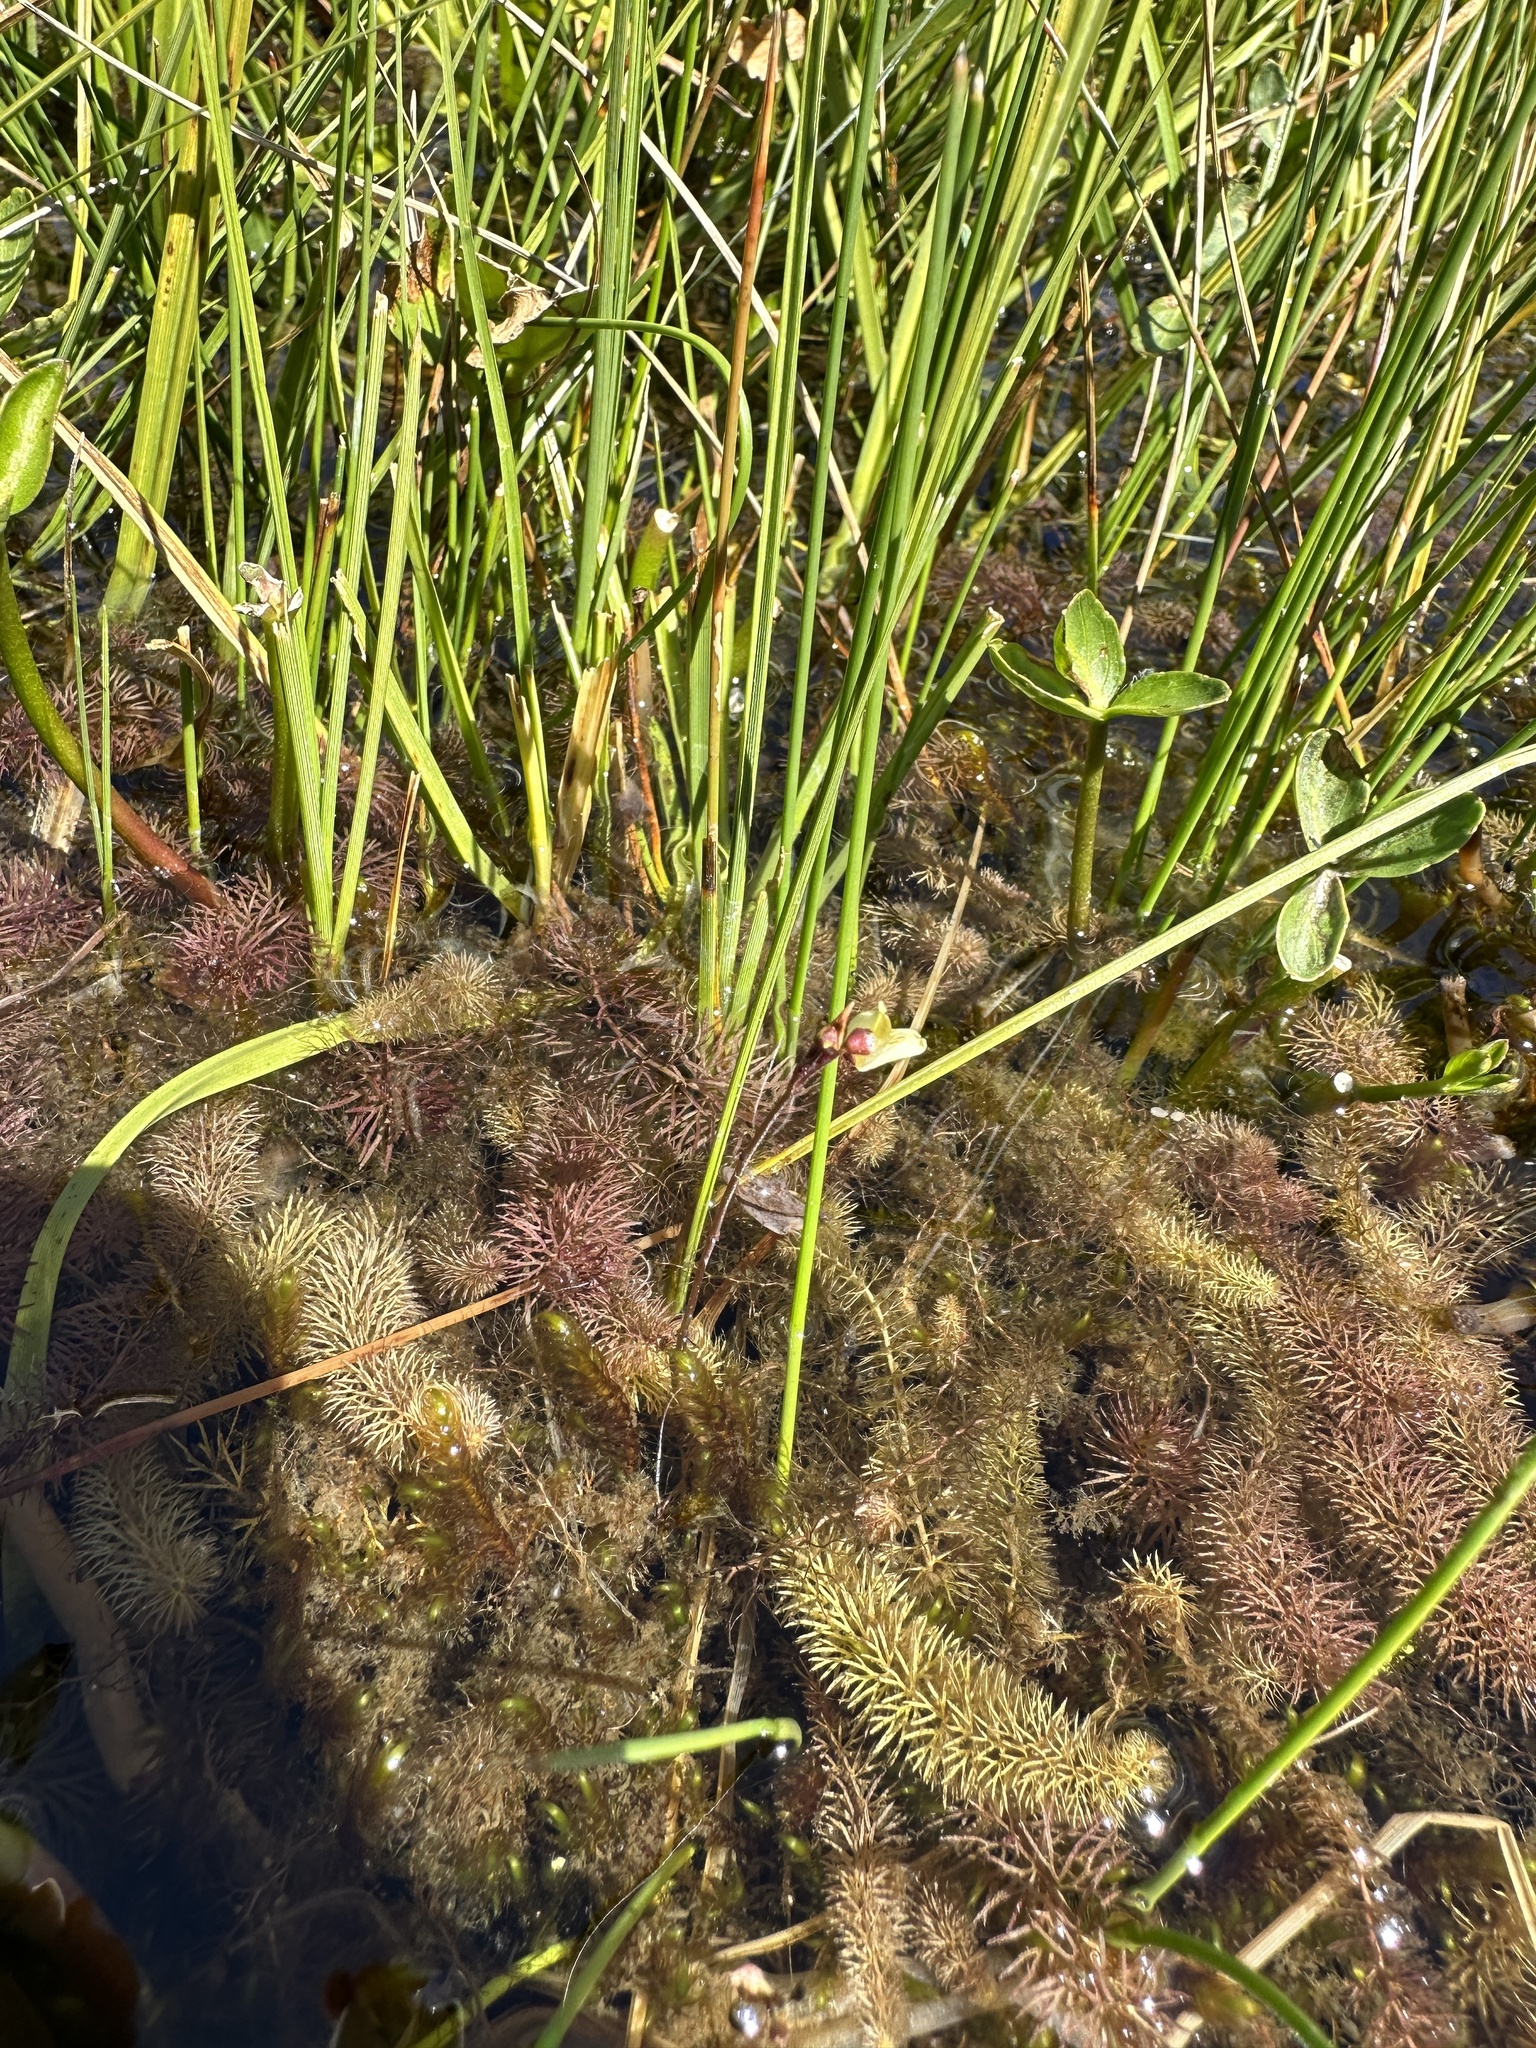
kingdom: Plantae
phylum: Tracheophyta
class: Magnoliopsida
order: Lamiales
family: Lentibulariaceae
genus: Utricularia
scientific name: Utricularia minor
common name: Lesser bladderwort
